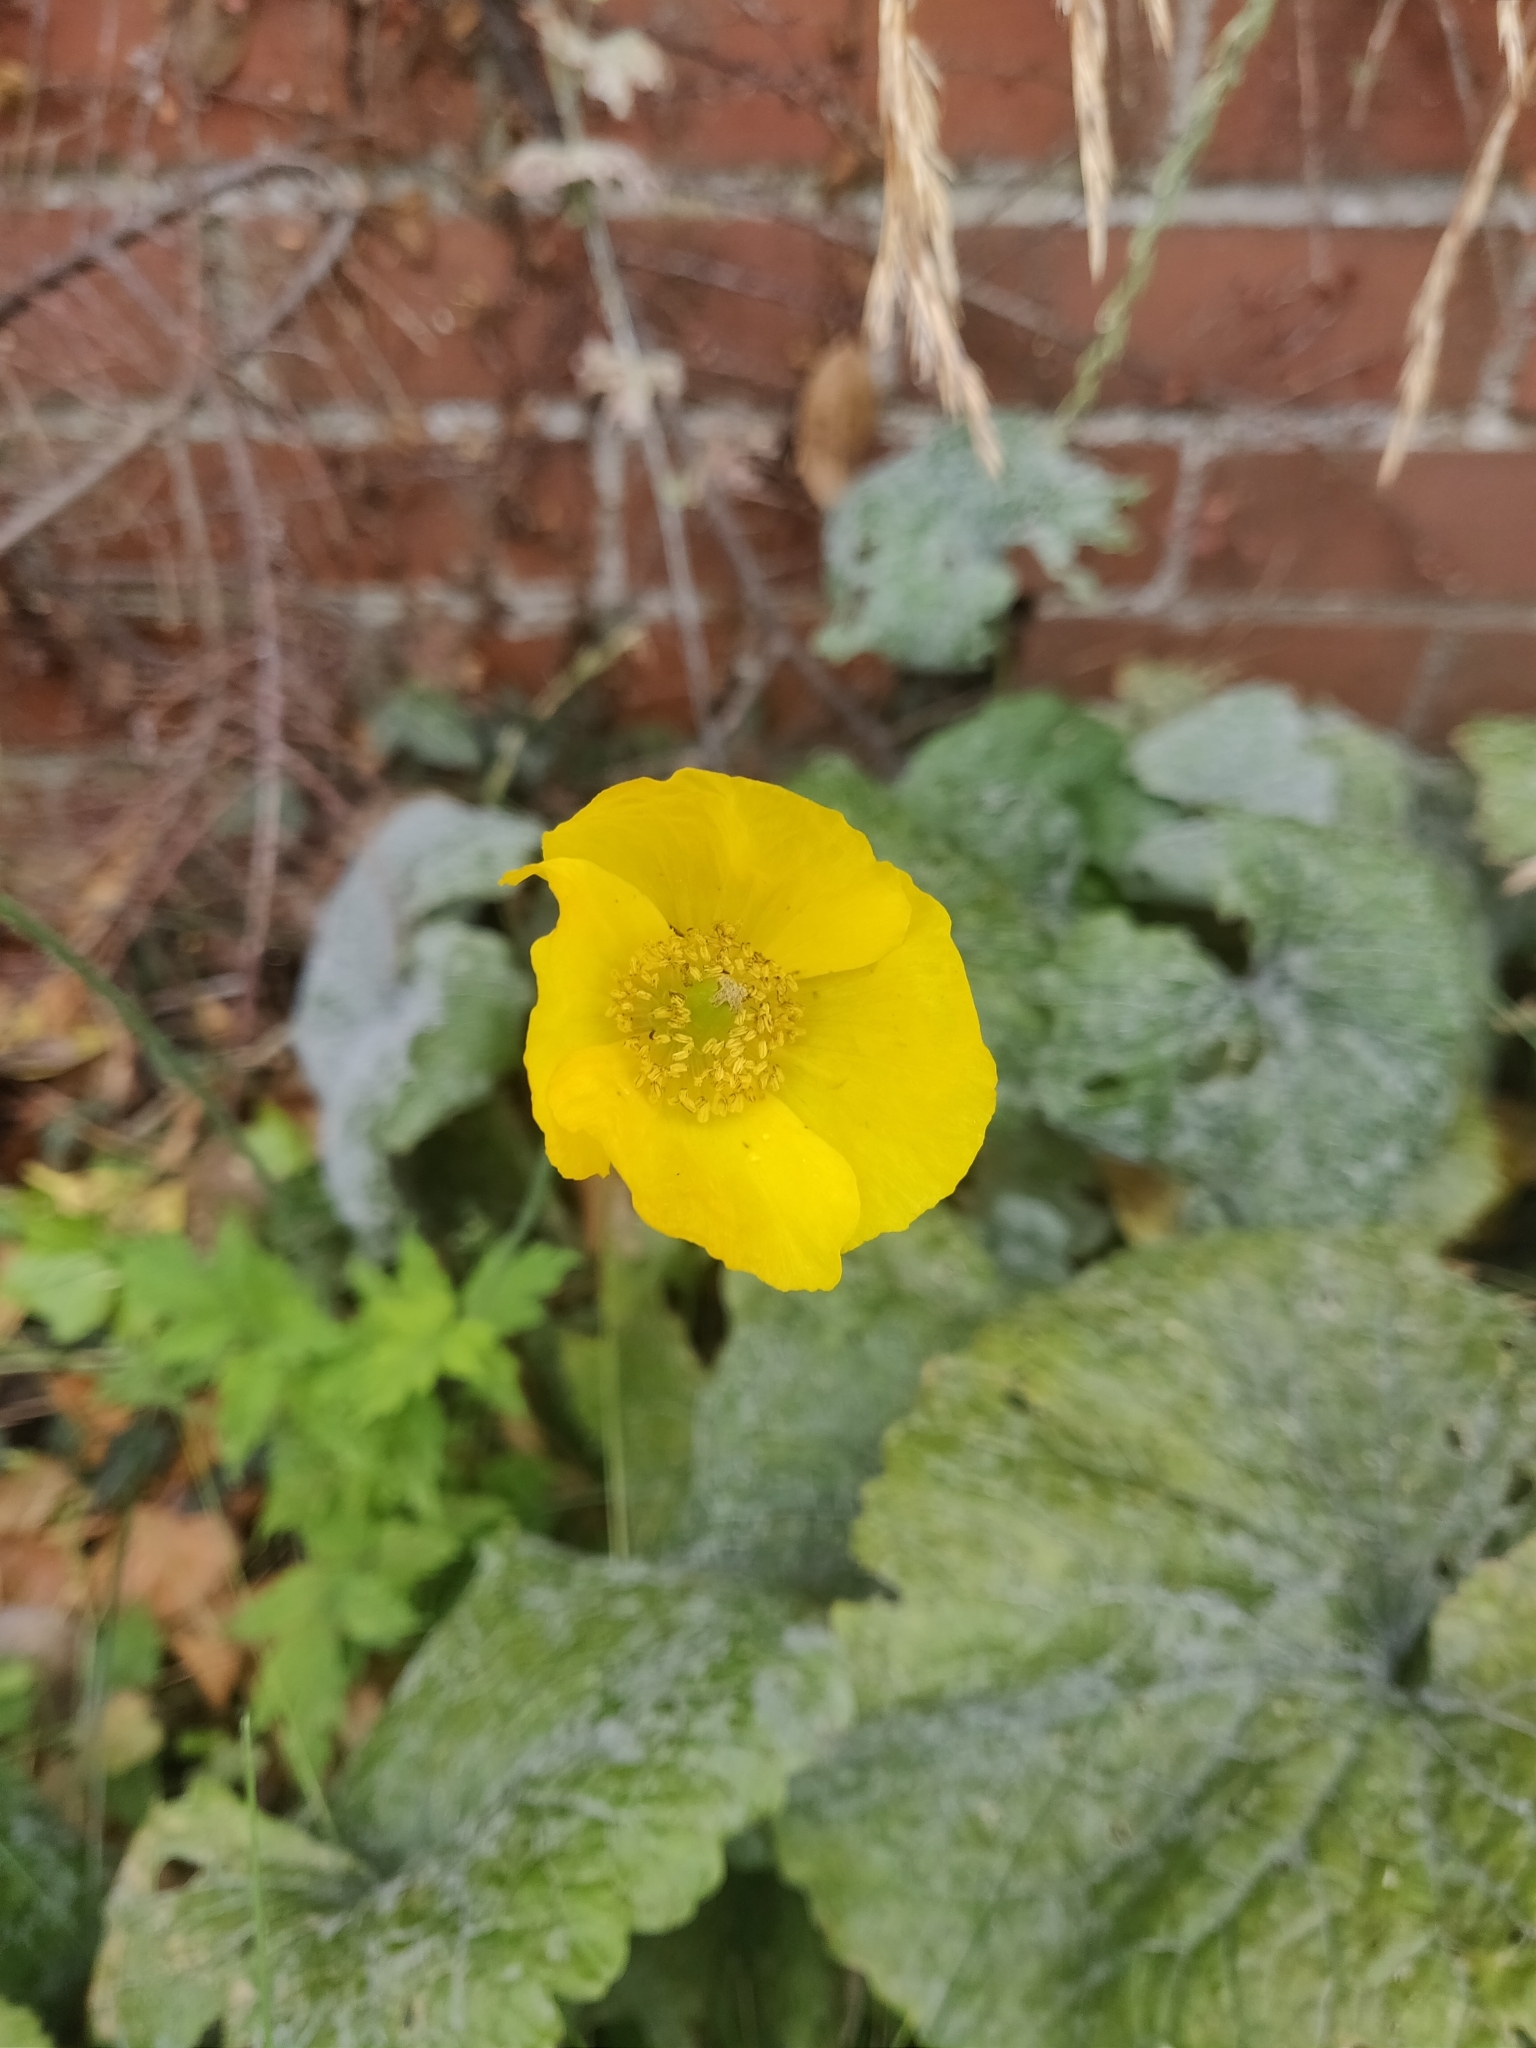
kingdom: Plantae
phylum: Tracheophyta
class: Magnoliopsida
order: Ranunculales
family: Papaveraceae
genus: Papaver
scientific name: Papaver cambricum
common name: Poppy
